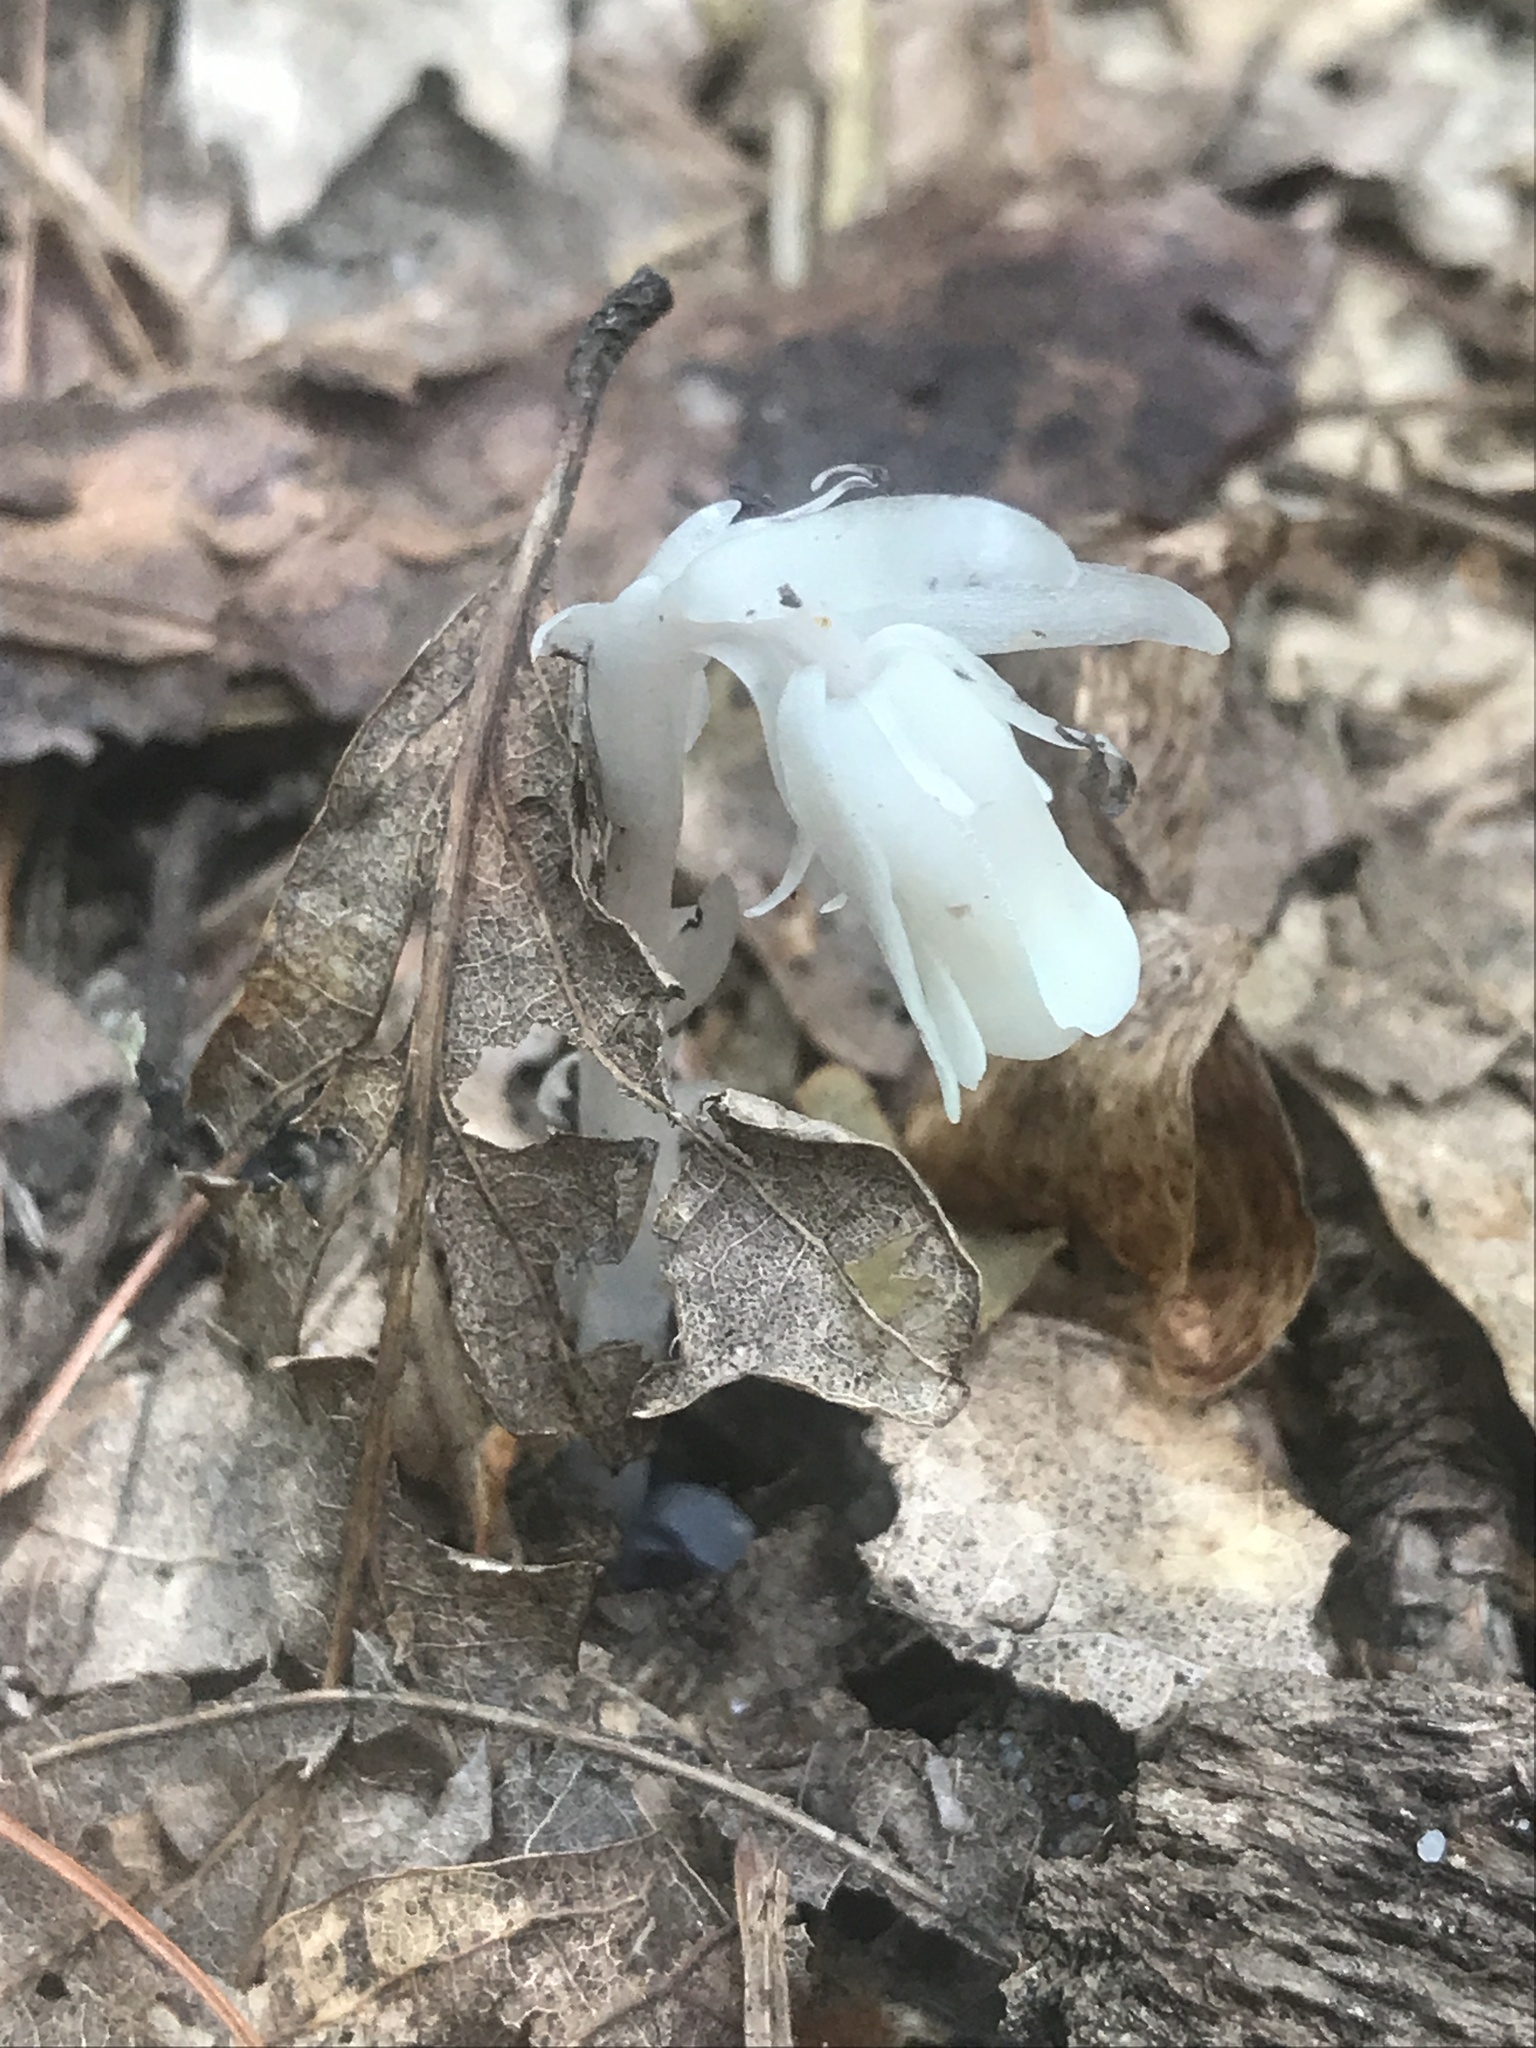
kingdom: Plantae
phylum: Tracheophyta
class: Magnoliopsida
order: Ericales
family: Ericaceae
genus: Monotropa
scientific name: Monotropa uniflora
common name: Convulsion root
